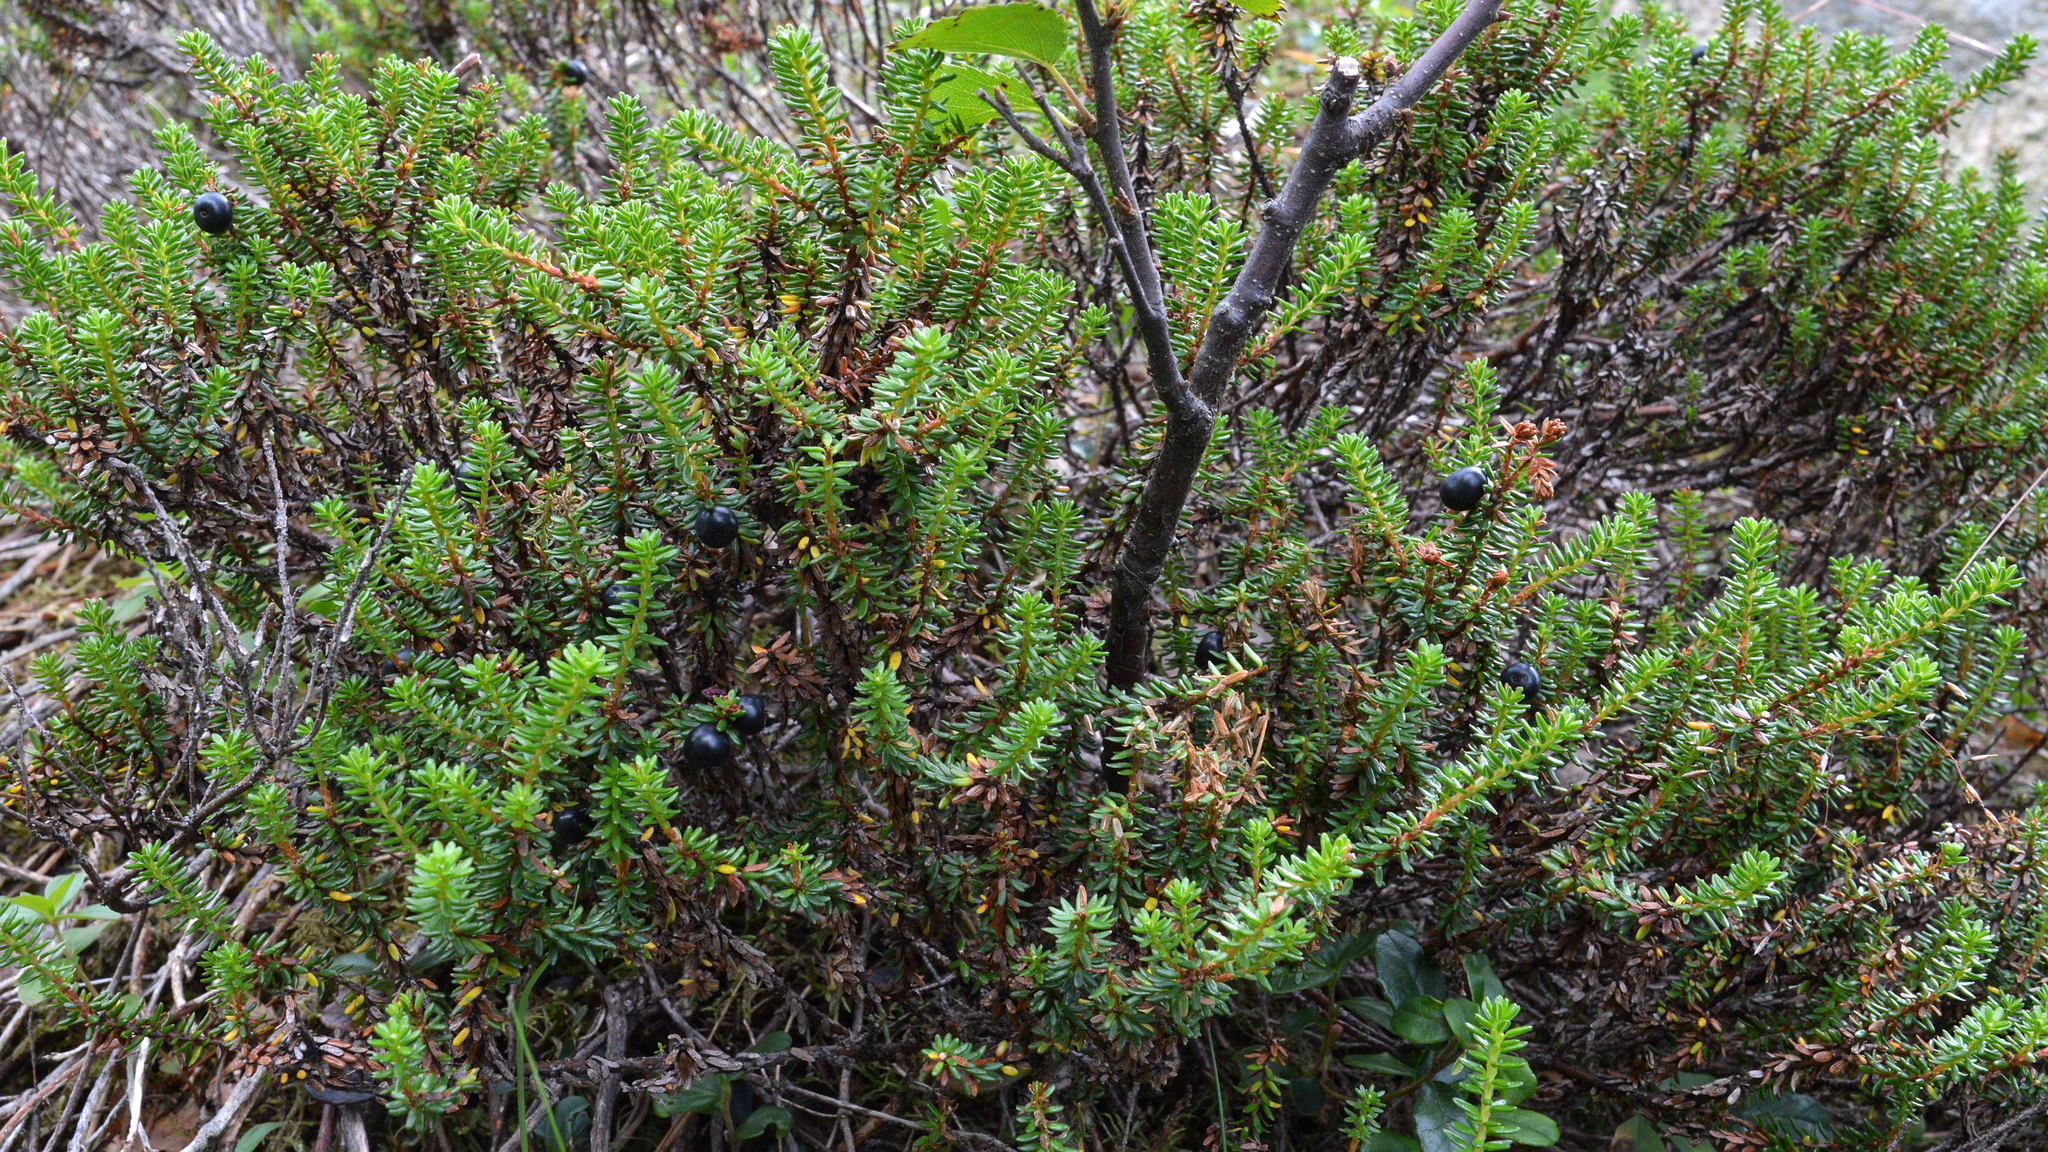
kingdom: Plantae
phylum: Tracheophyta
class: Magnoliopsida
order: Ericales
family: Ericaceae
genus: Empetrum
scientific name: Empetrum nigrum
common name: Black crowberry
